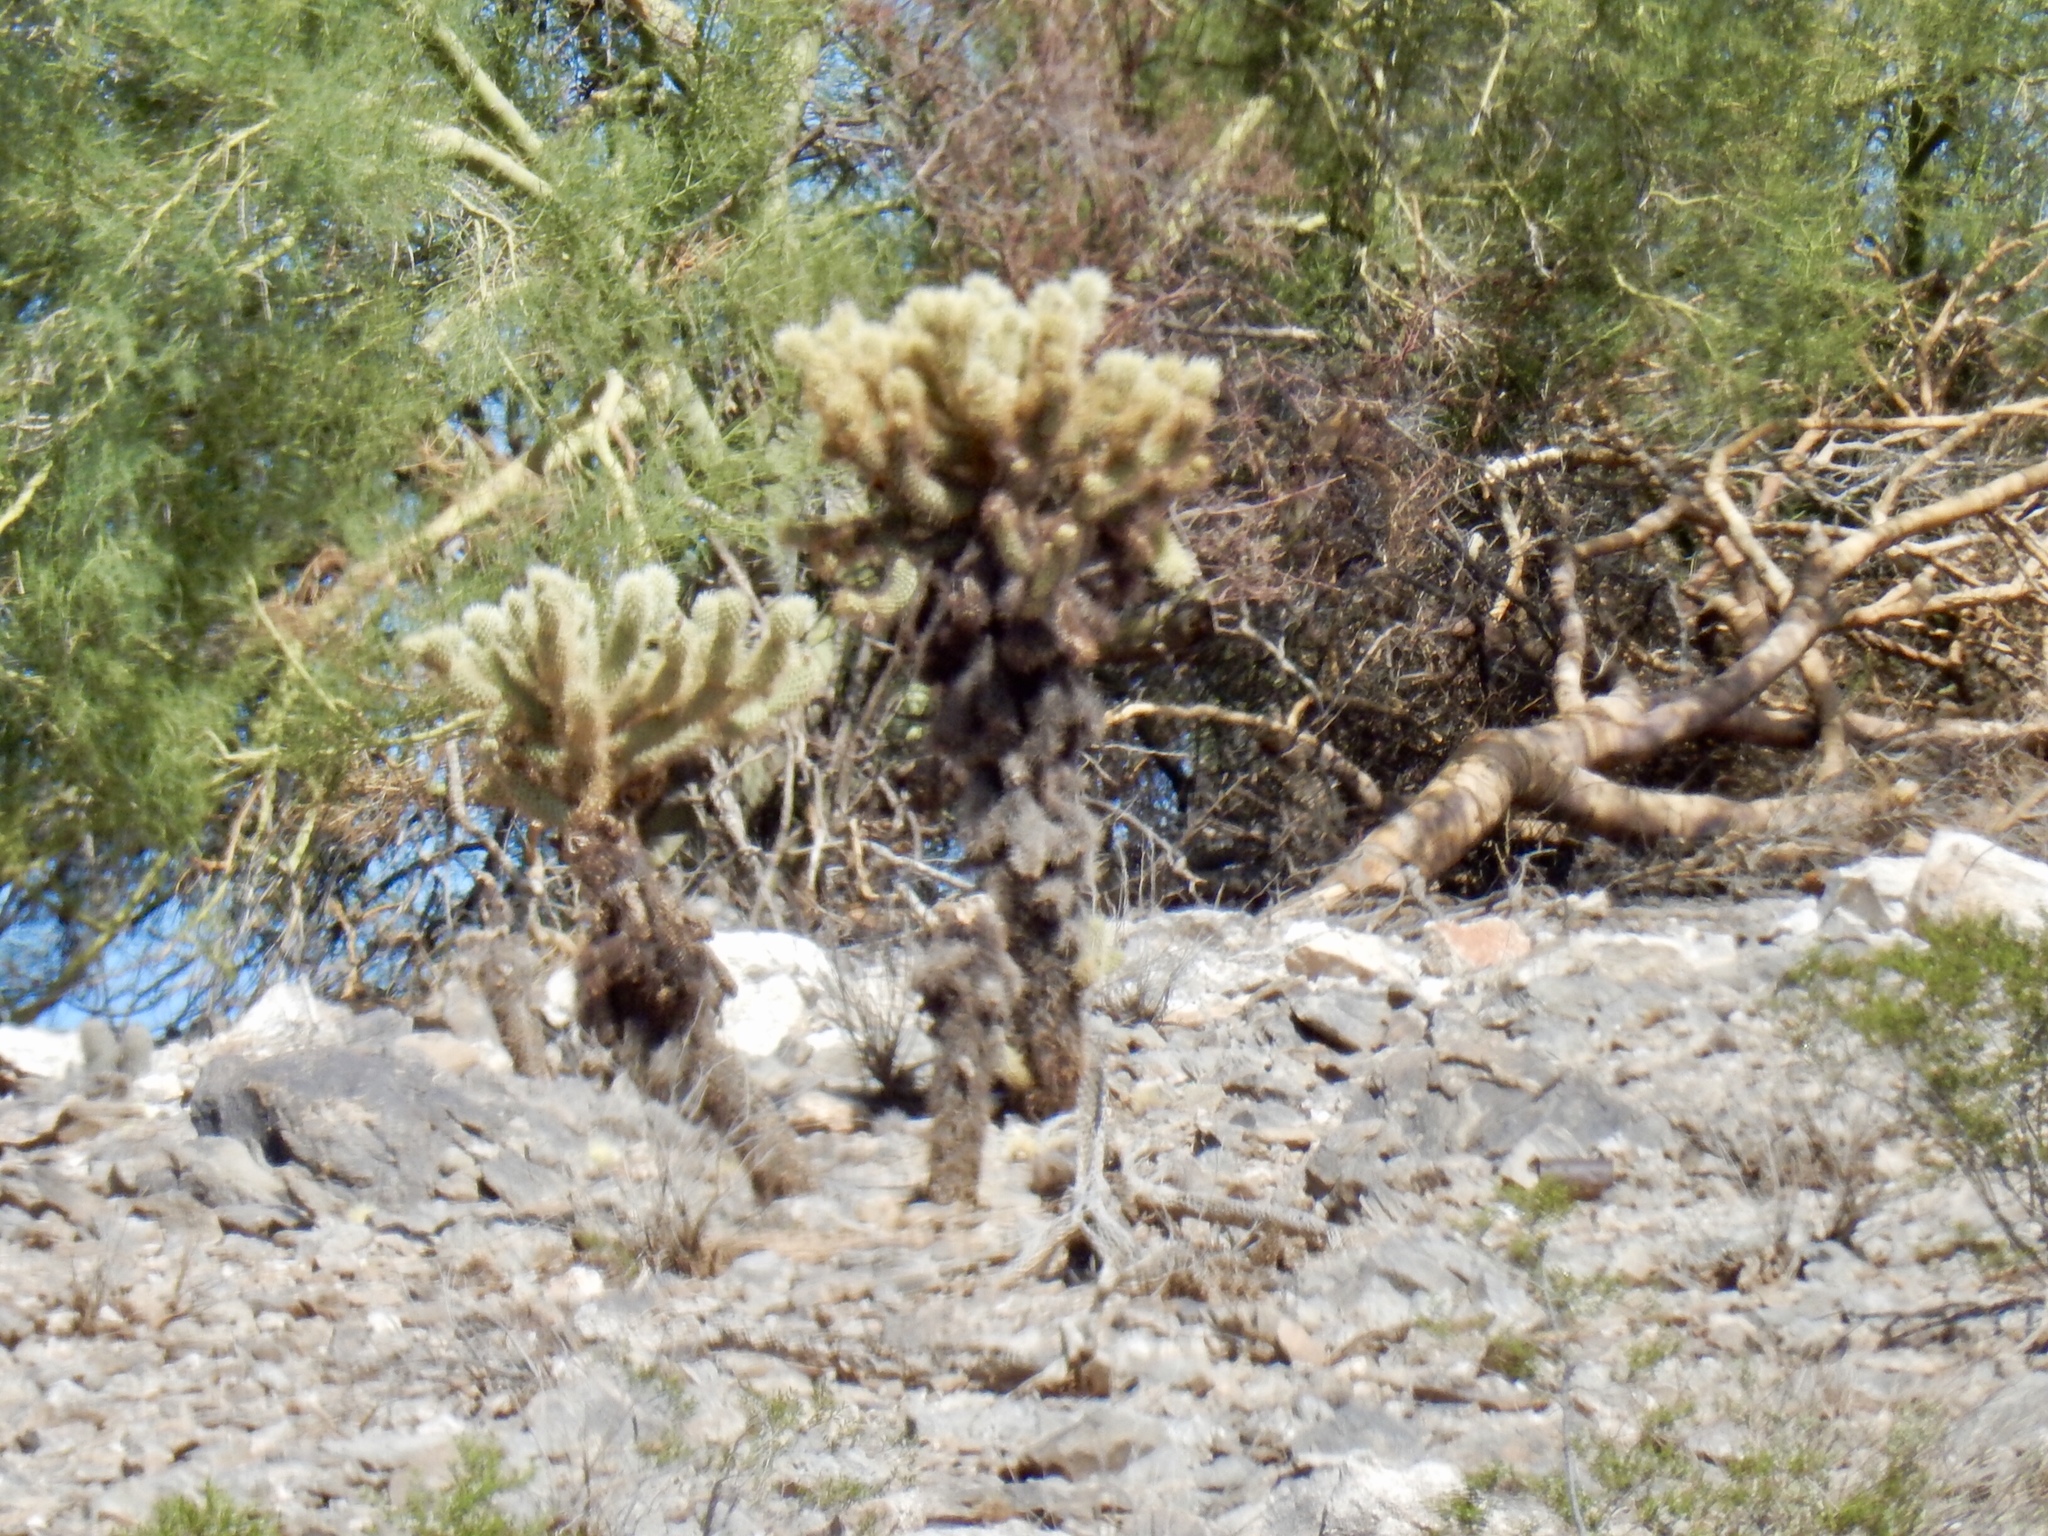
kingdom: Plantae
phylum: Tracheophyta
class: Magnoliopsida
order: Caryophyllales
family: Cactaceae
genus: Cylindropuntia
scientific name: Cylindropuntia fosbergii
